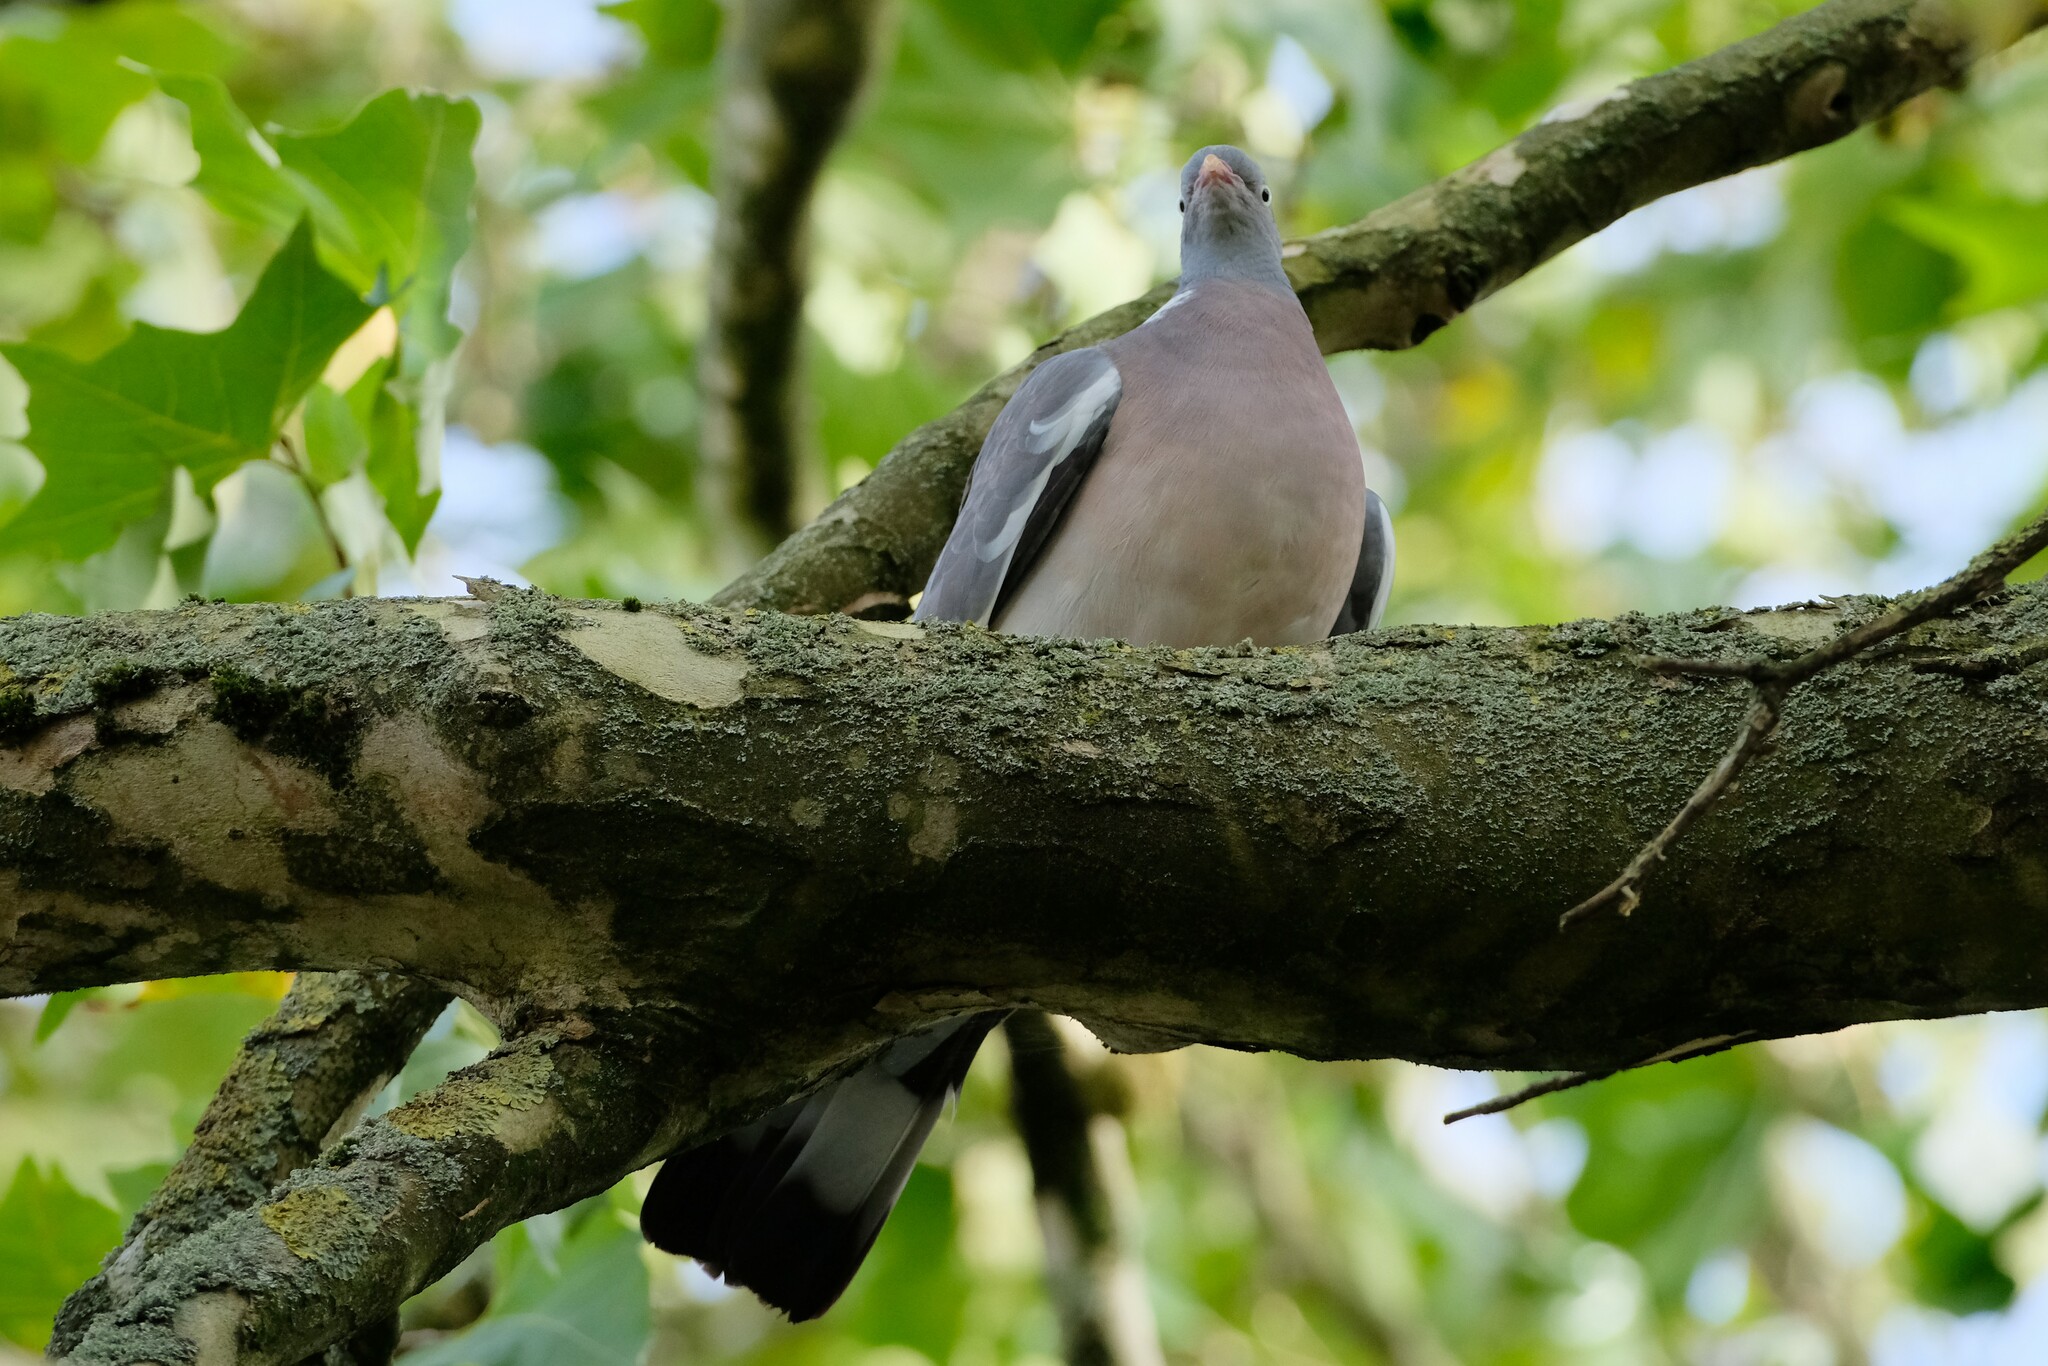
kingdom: Animalia
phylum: Chordata
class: Aves
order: Columbiformes
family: Columbidae
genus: Columba
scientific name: Columba palumbus
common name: Common wood pigeon
